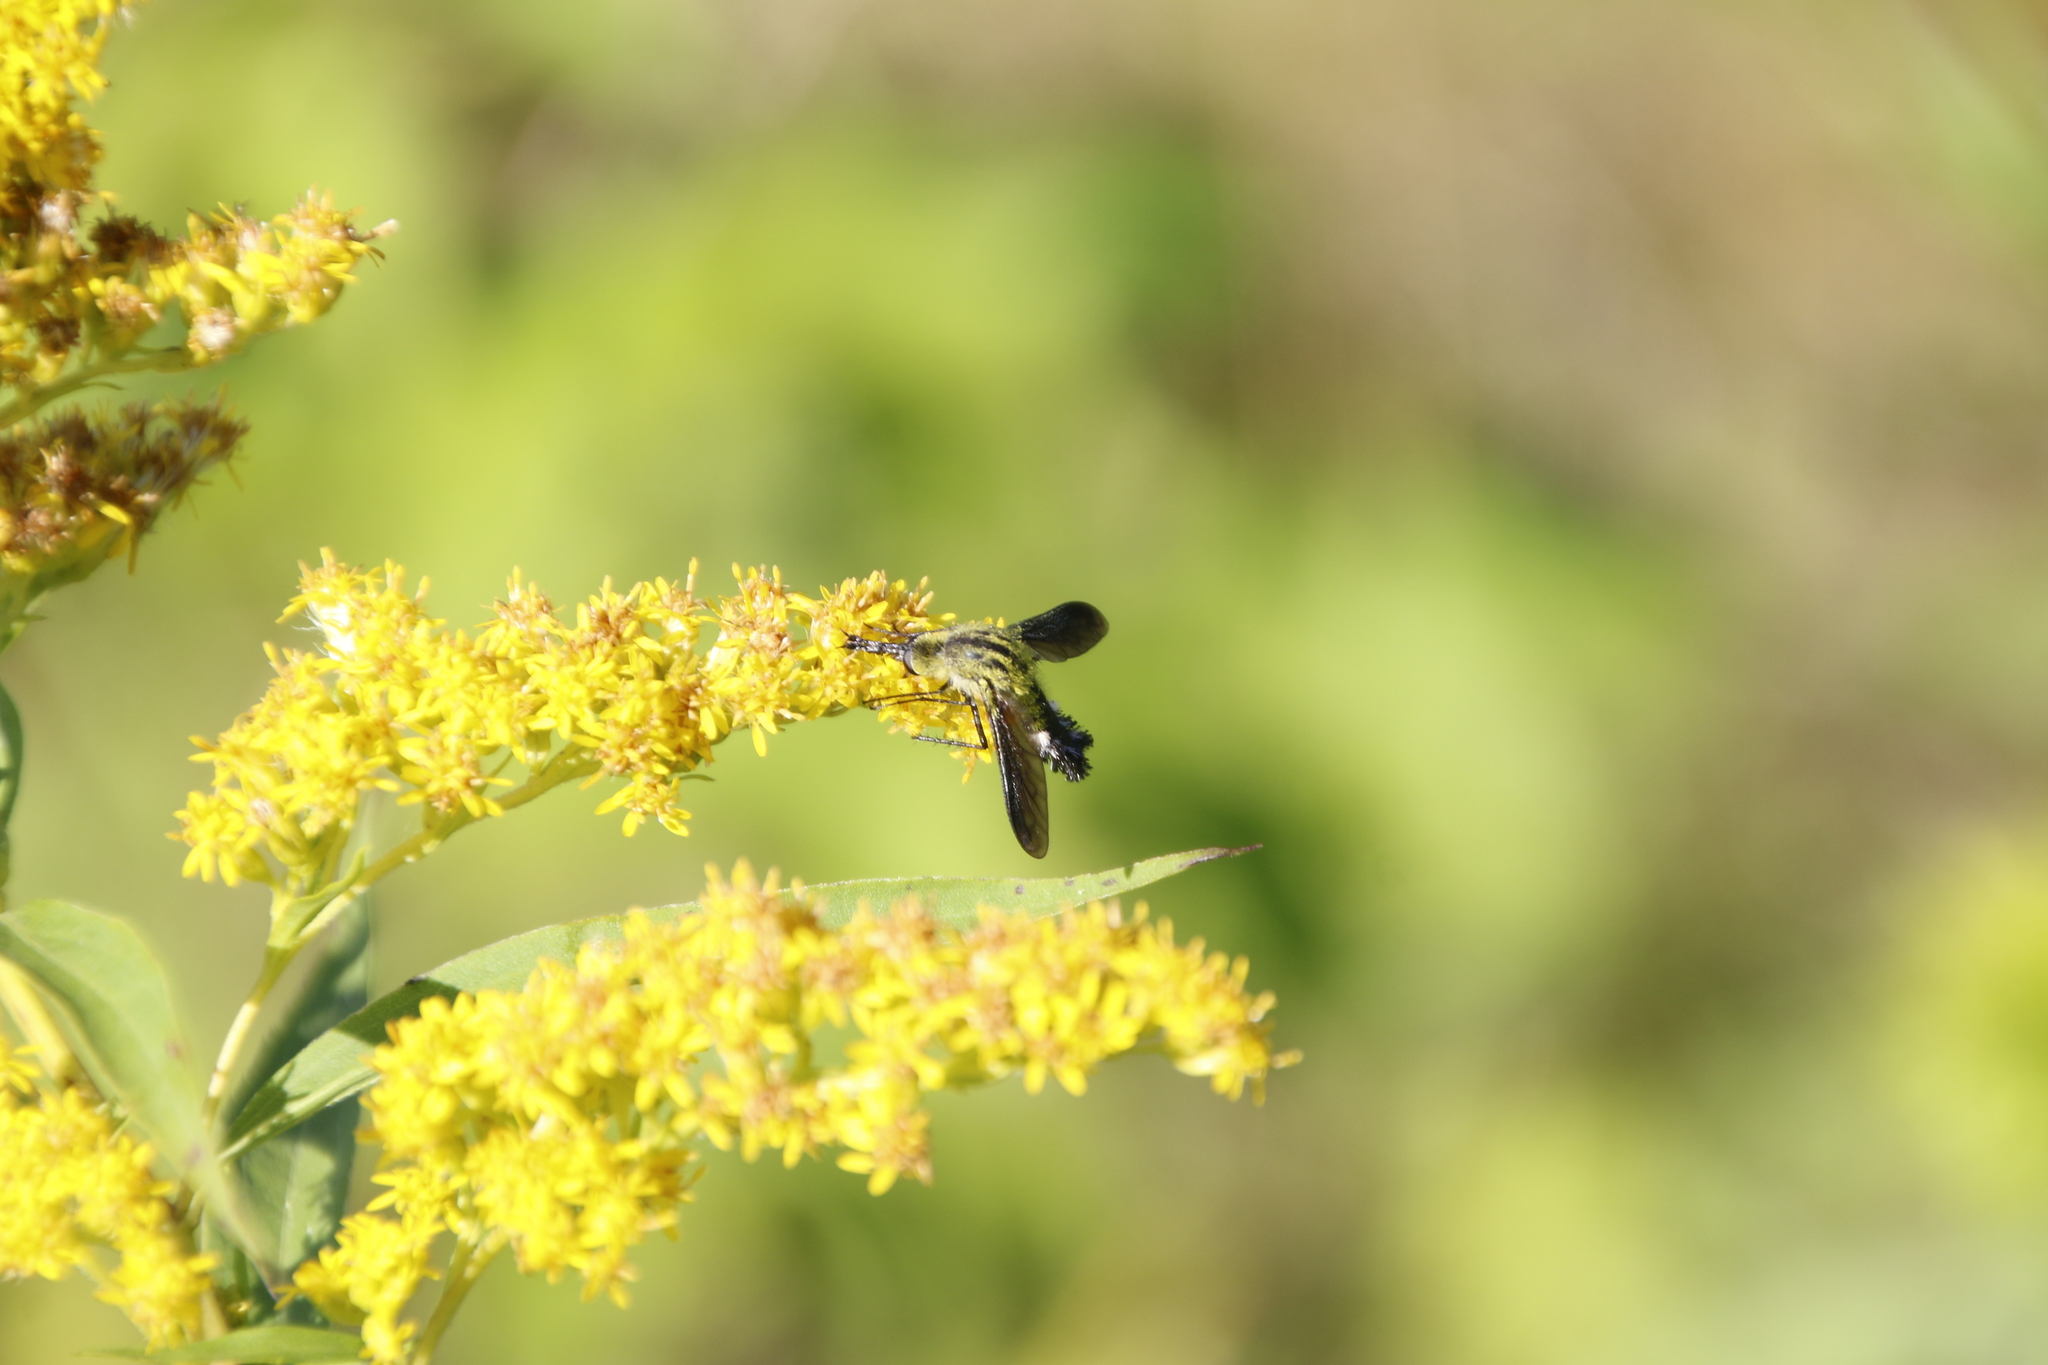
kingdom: Animalia
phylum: Arthropoda
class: Insecta
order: Diptera
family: Bombyliidae
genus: Lepidophora
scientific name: Lepidophora lutea
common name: Hunchback bee fly
